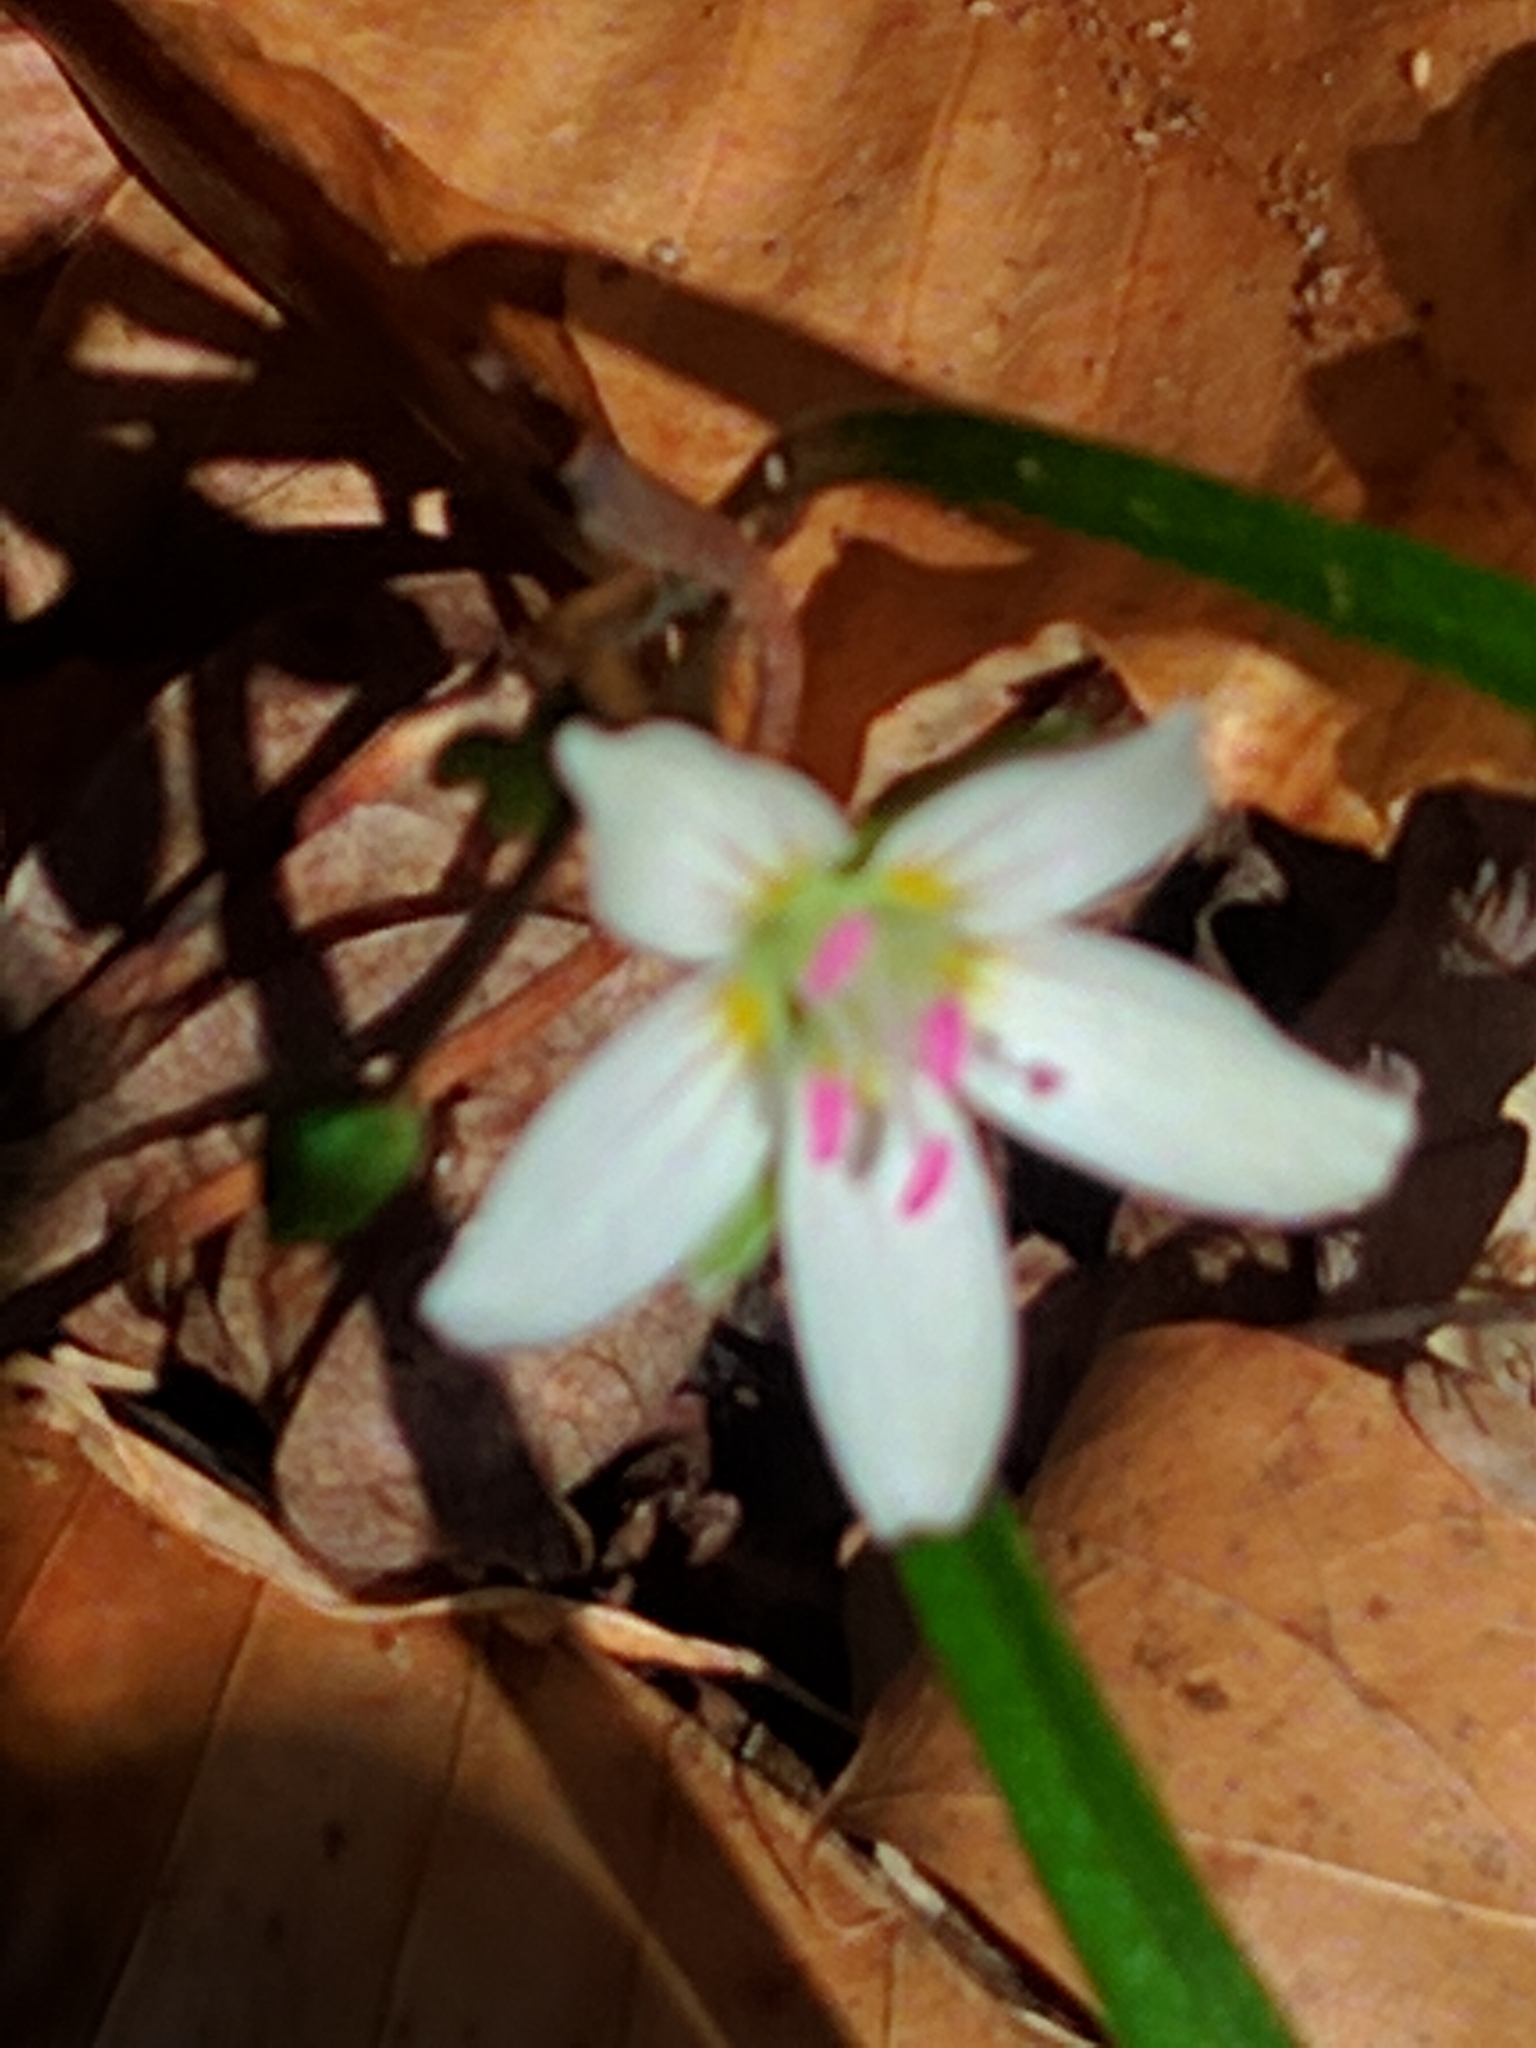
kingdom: Plantae
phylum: Tracheophyta
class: Magnoliopsida
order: Caryophyllales
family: Montiaceae
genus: Claytonia
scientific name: Claytonia virginica
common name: Virginia springbeauty
